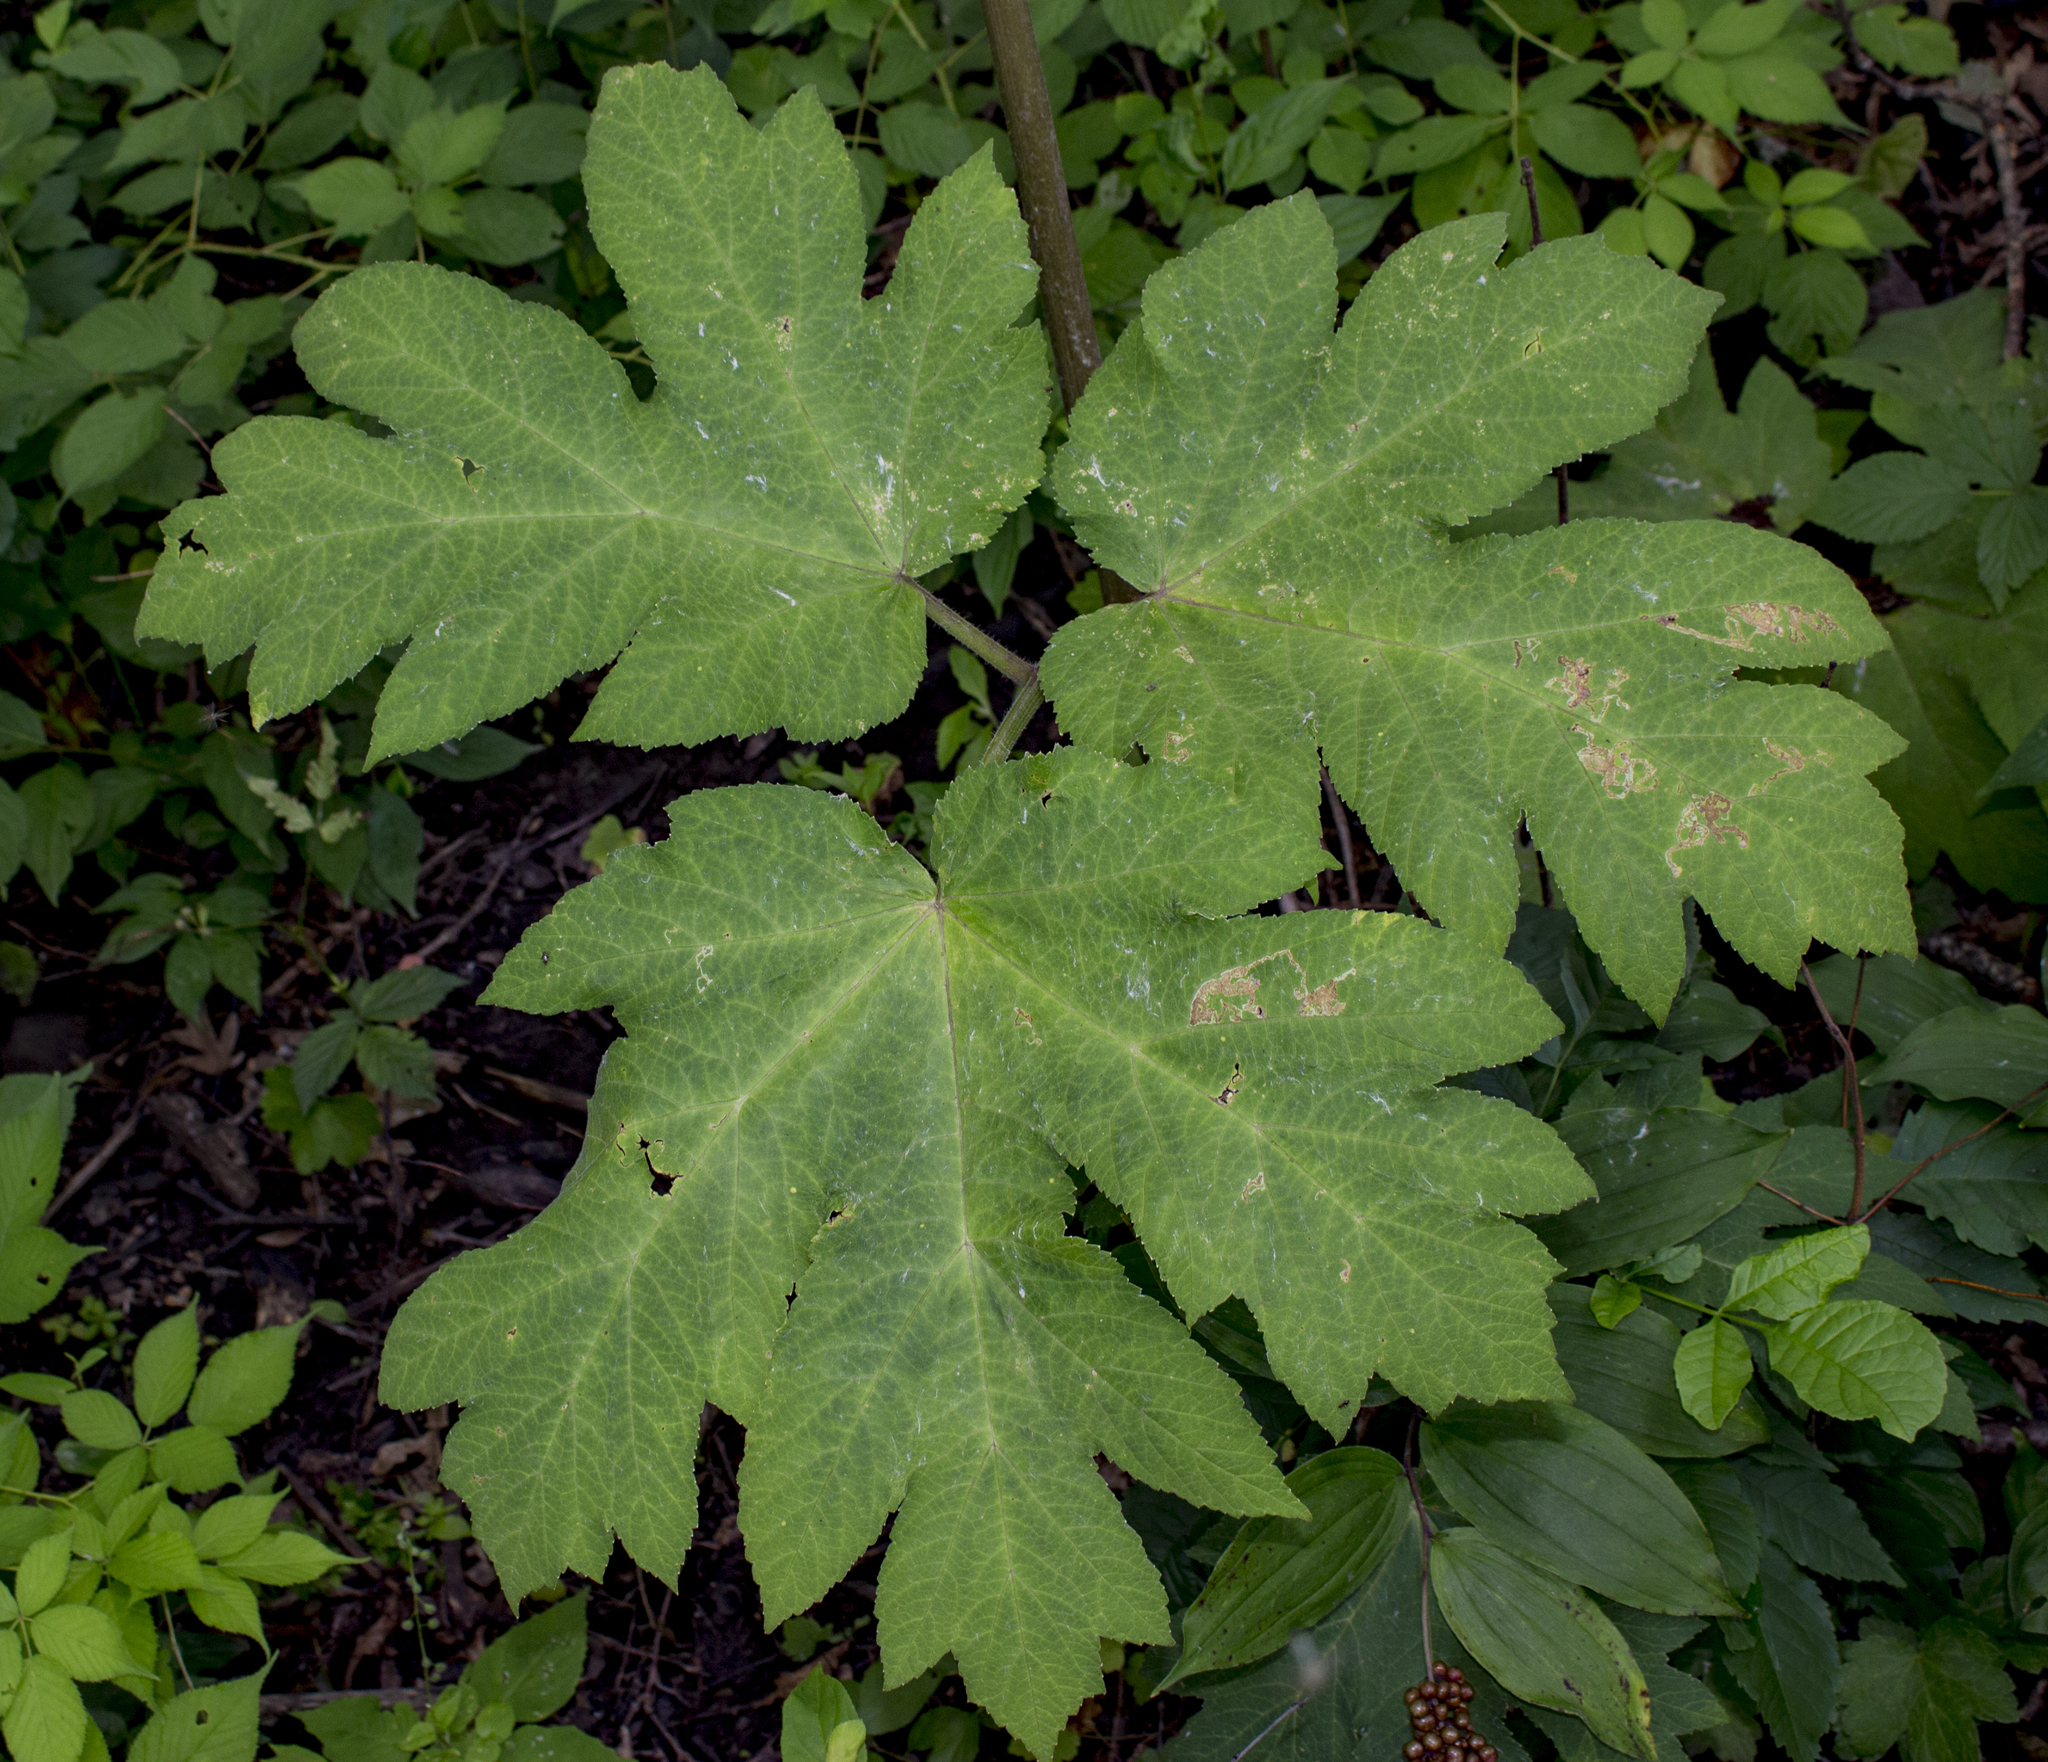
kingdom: Plantae
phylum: Tracheophyta
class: Magnoliopsida
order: Apiales
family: Apiaceae
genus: Heracleum
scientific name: Heracleum maximum
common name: American cow parsnip
